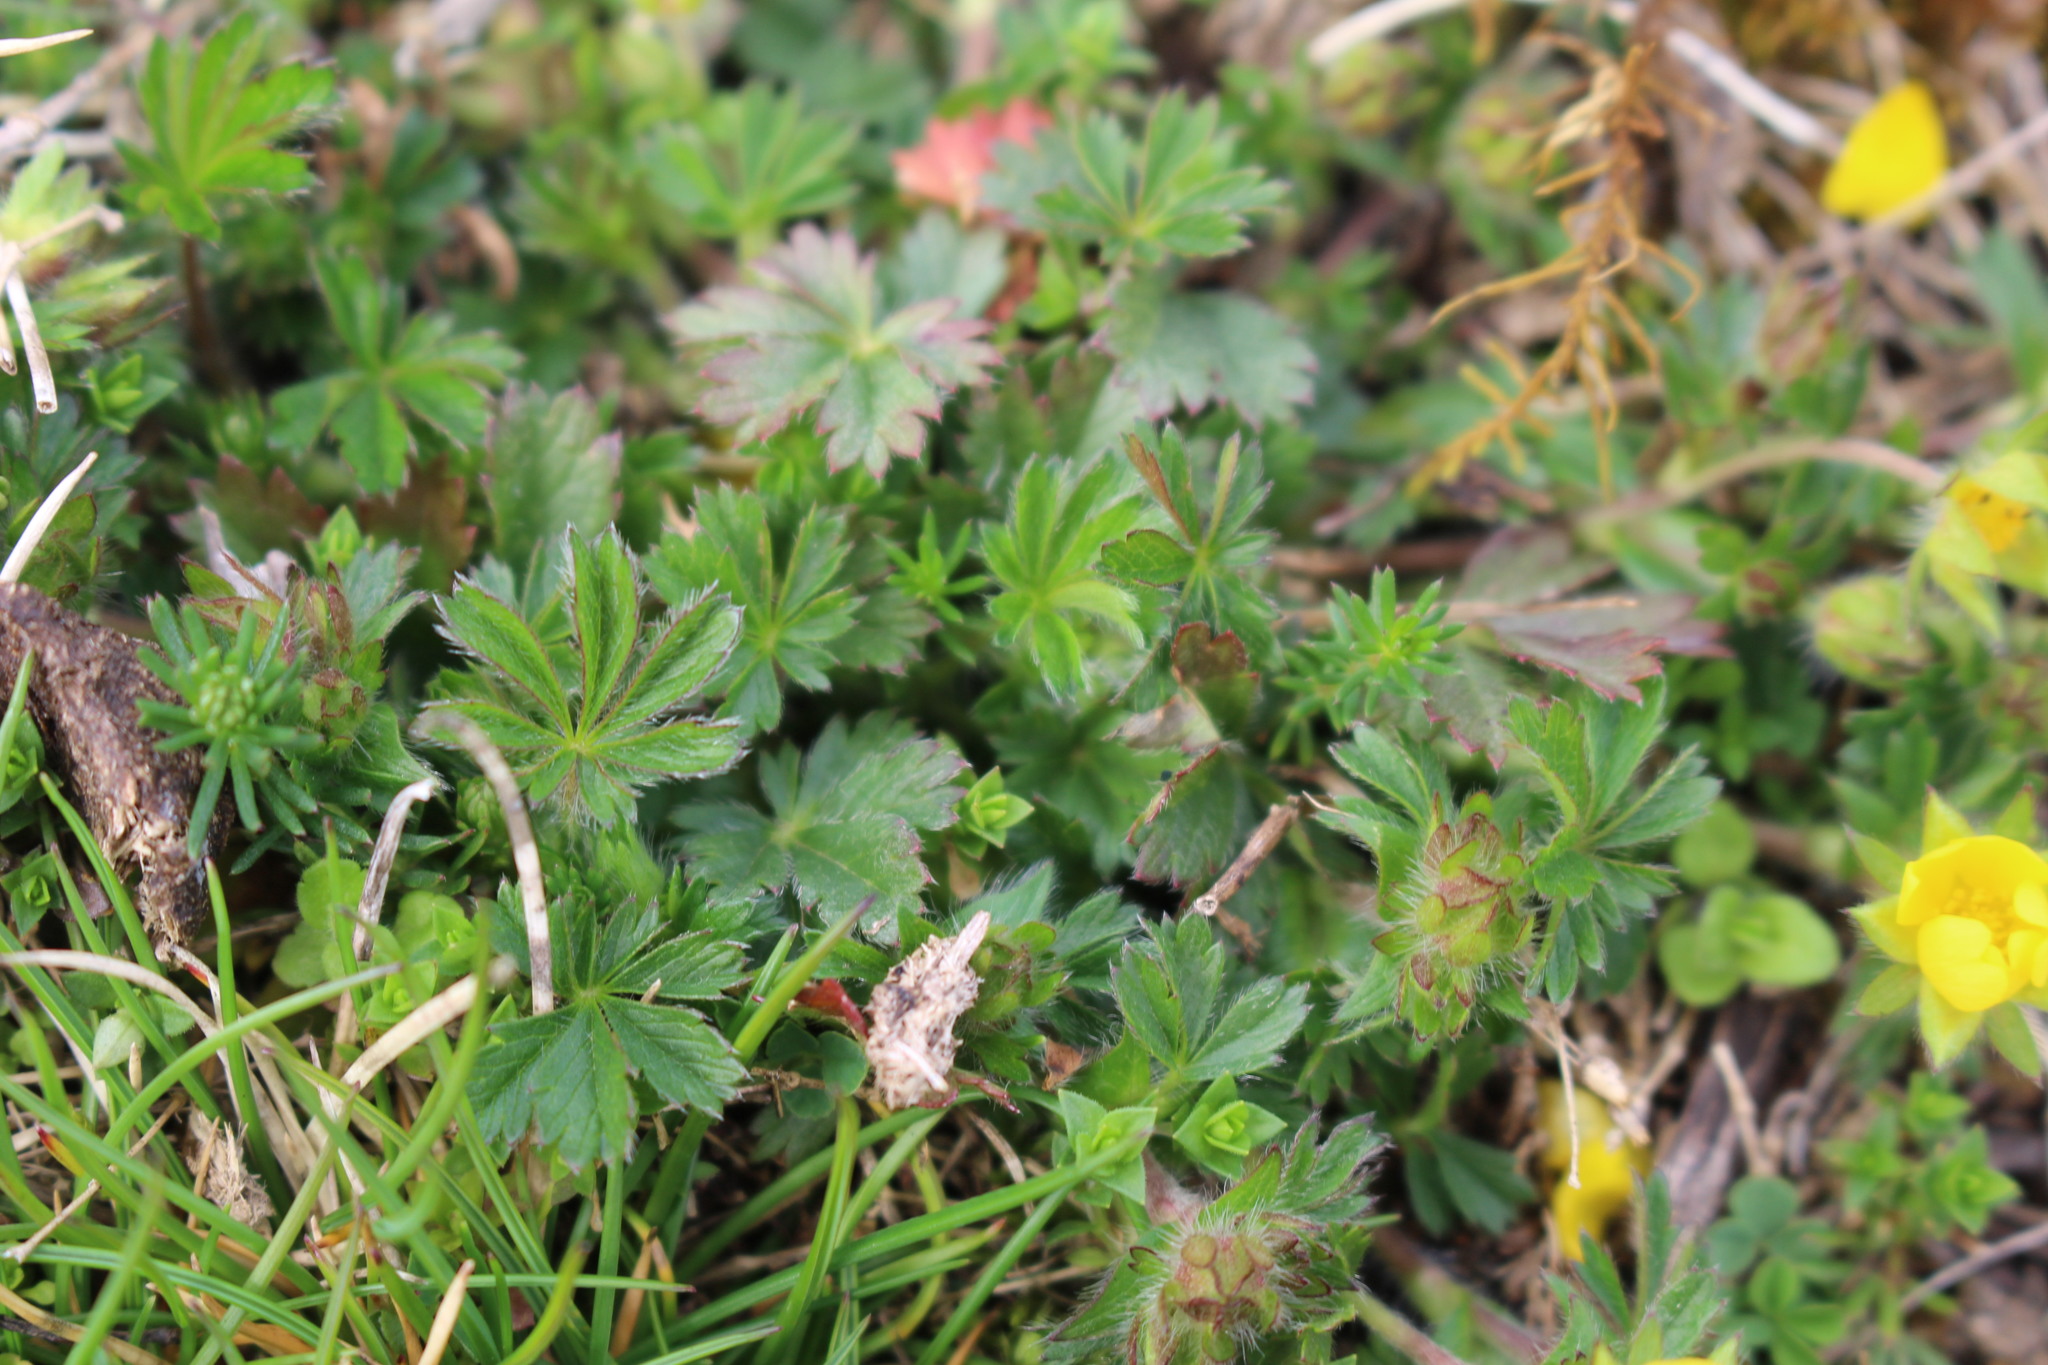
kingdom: Plantae
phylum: Tracheophyta
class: Magnoliopsida
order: Rosales
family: Rosaceae
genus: Potentilla
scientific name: Potentilla verna
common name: Spring cinquefoil
